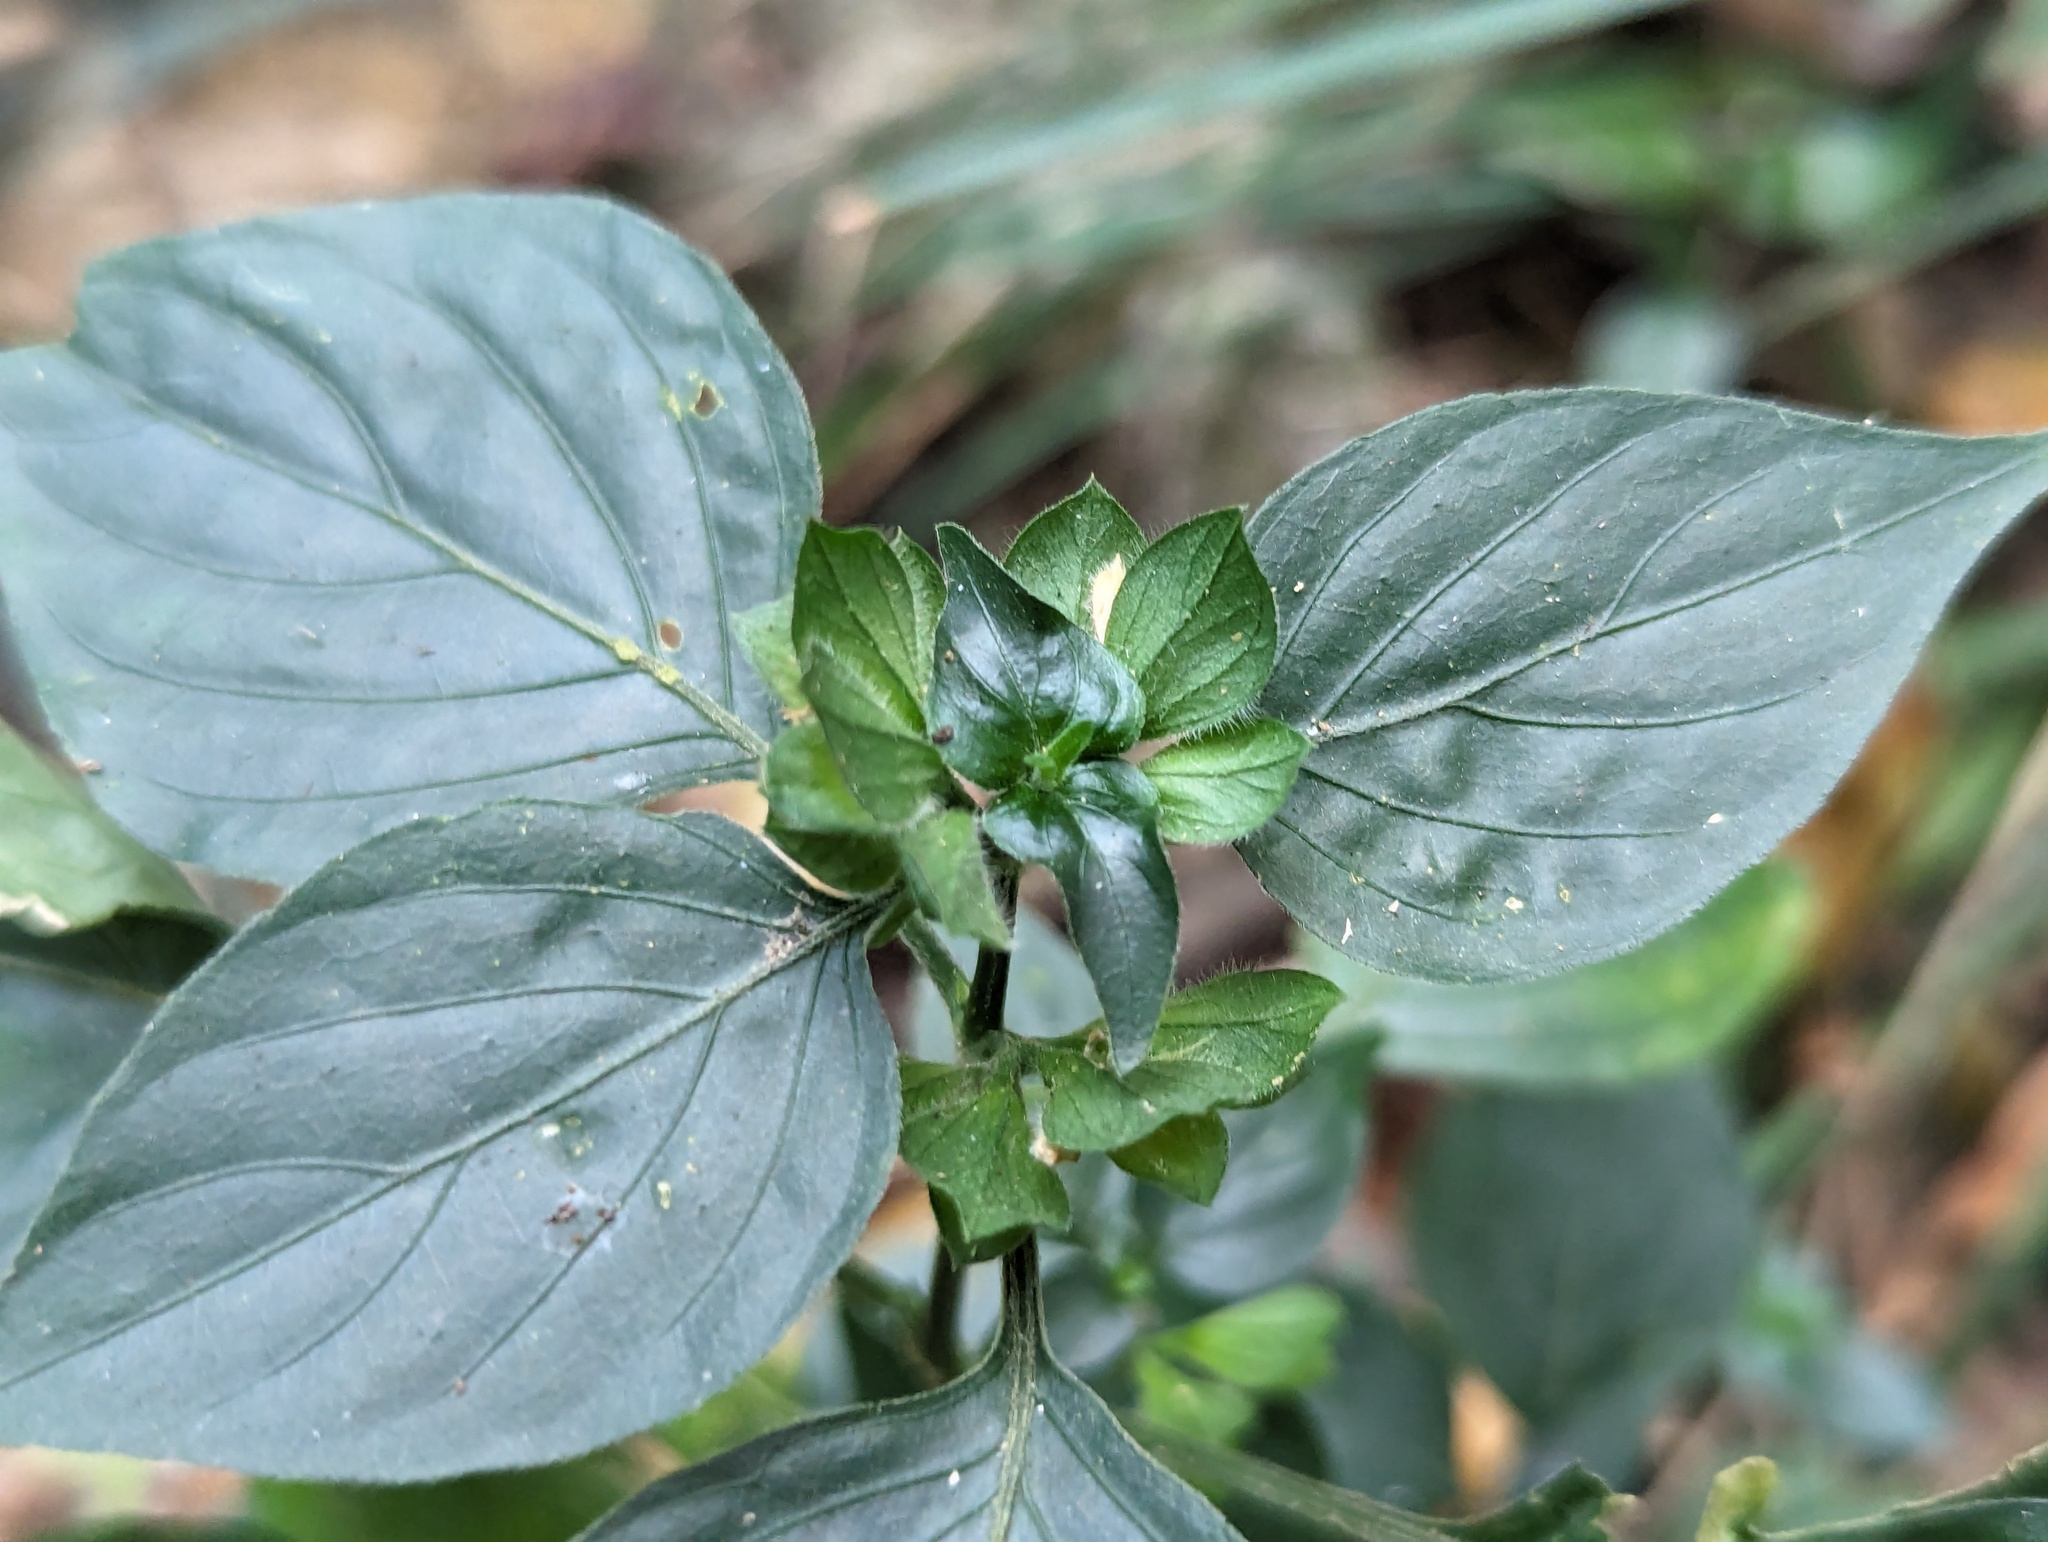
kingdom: Plantae
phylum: Tracheophyta
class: Magnoliopsida
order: Lamiales
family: Acanthaceae
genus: Dicliptera
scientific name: Dicliptera chinensis
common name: Chinese foldwing
